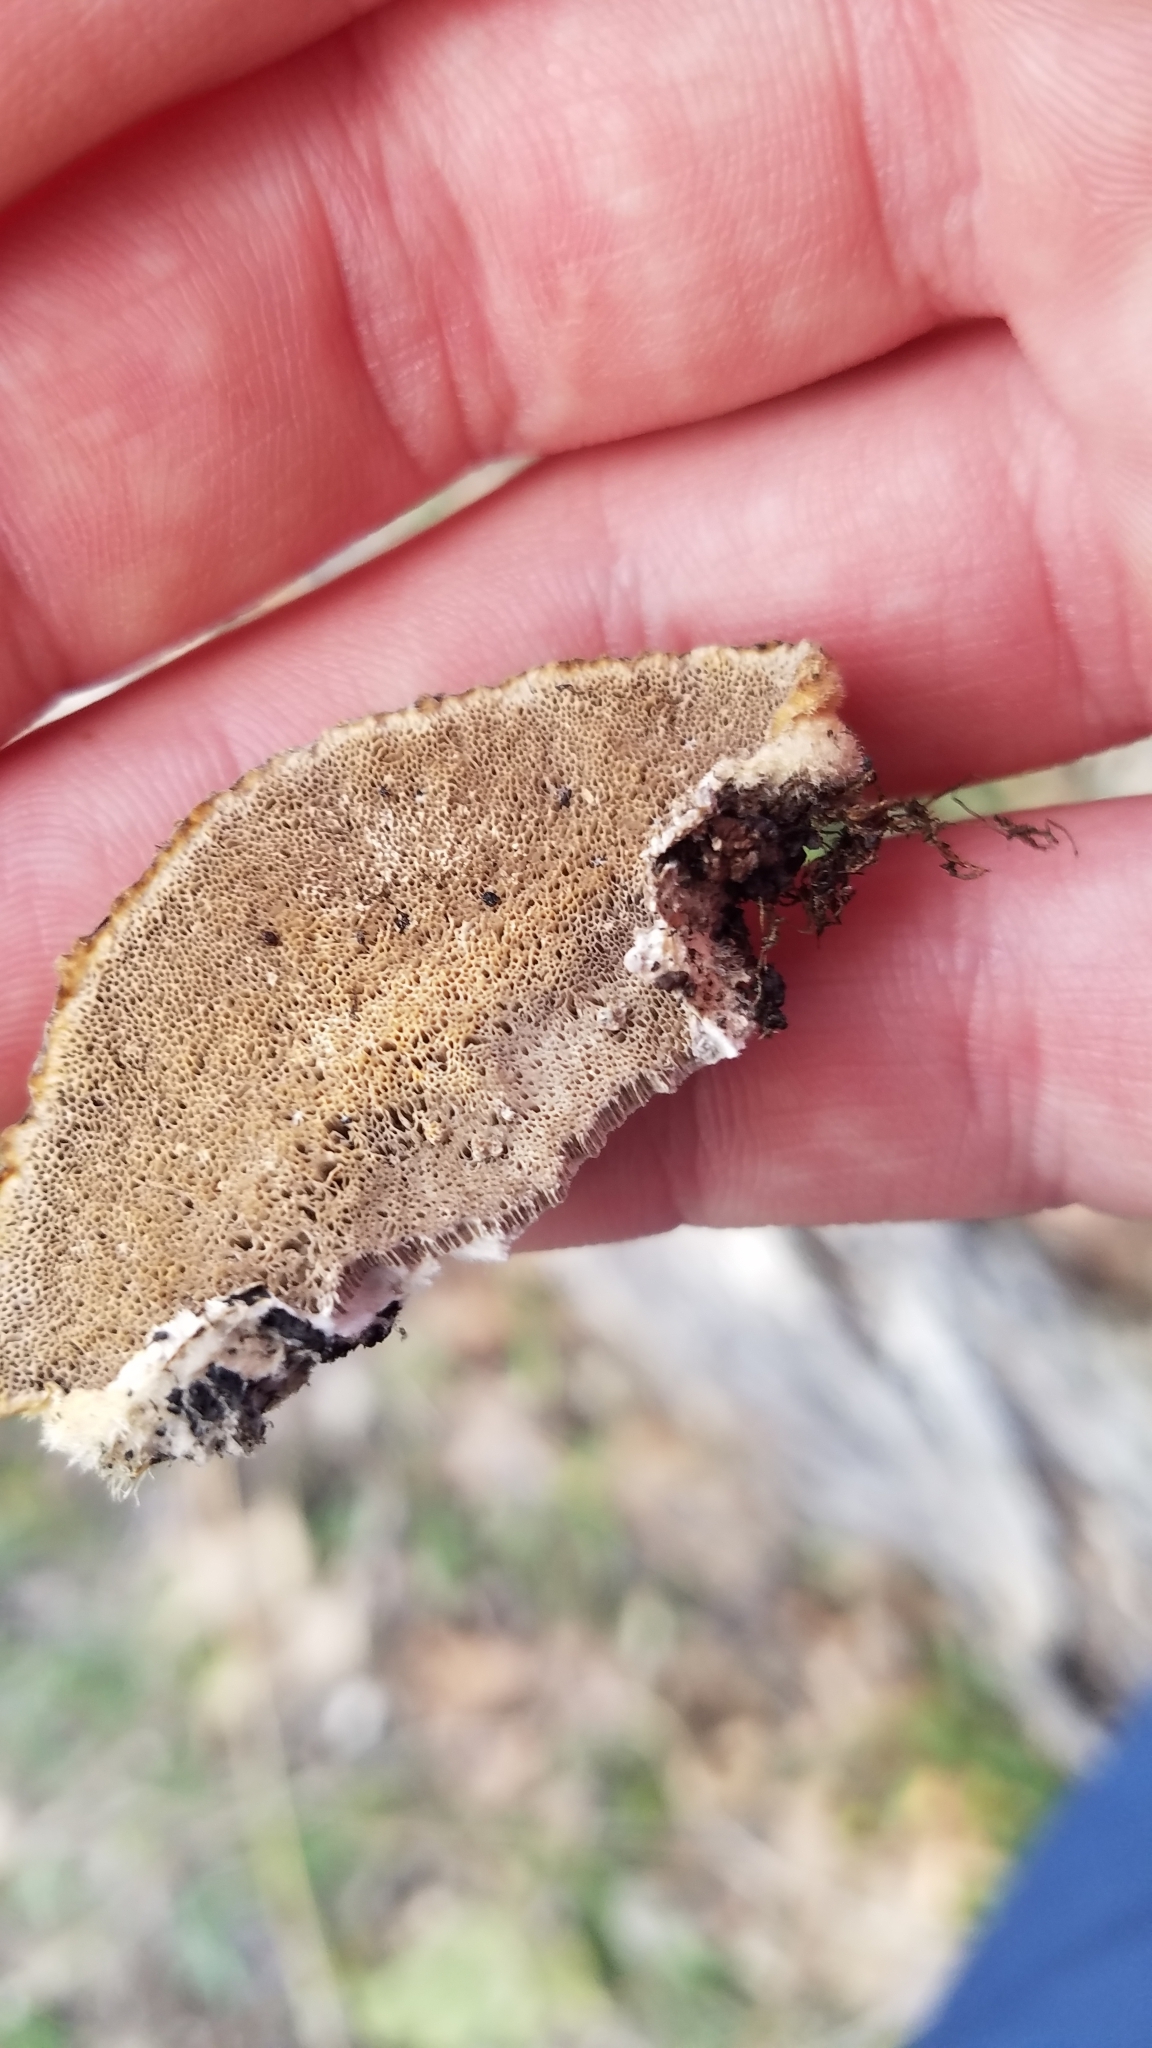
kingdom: Fungi
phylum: Basidiomycota
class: Agaricomycetes
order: Polyporales
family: Polyporaceae
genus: Trametes
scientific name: Trametes hirsuta
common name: Hairy bracket
